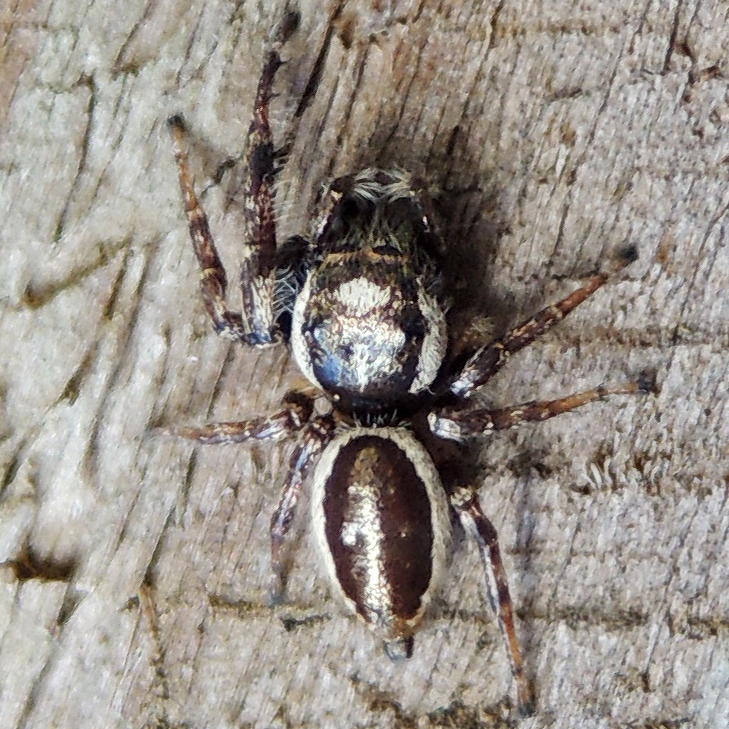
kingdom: Animalia
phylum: Arthropoda
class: Arachnida
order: Araneae
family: Salticidae
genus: Eris
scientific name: Eris militaris
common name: Bronze jumper
